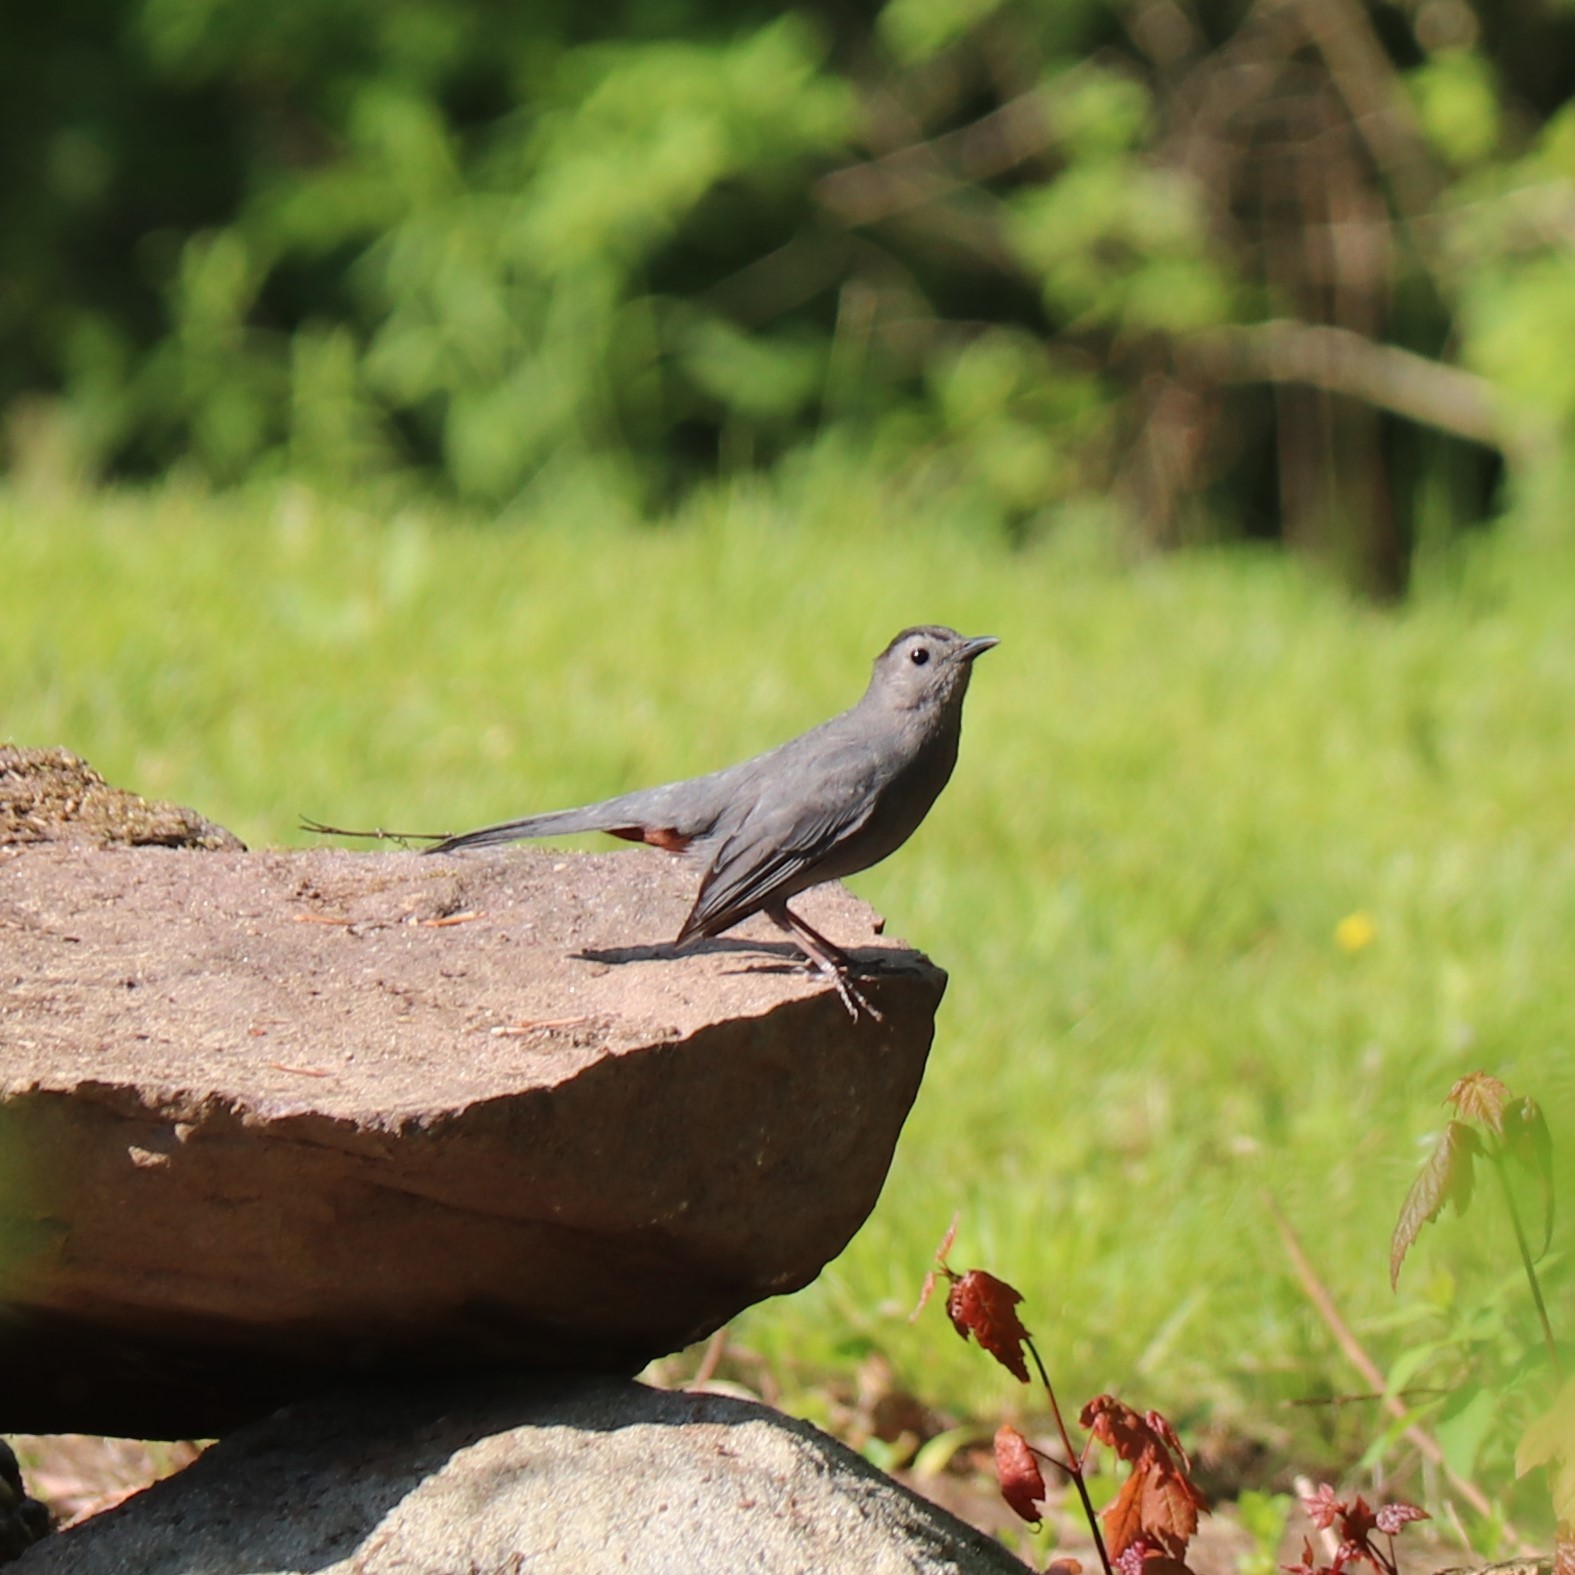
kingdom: Animalia
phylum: Chordata
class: Aves
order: Passeriformes
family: Mimidae
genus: Dumetella
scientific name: Dumetella carolinensis
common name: Gray catbird
